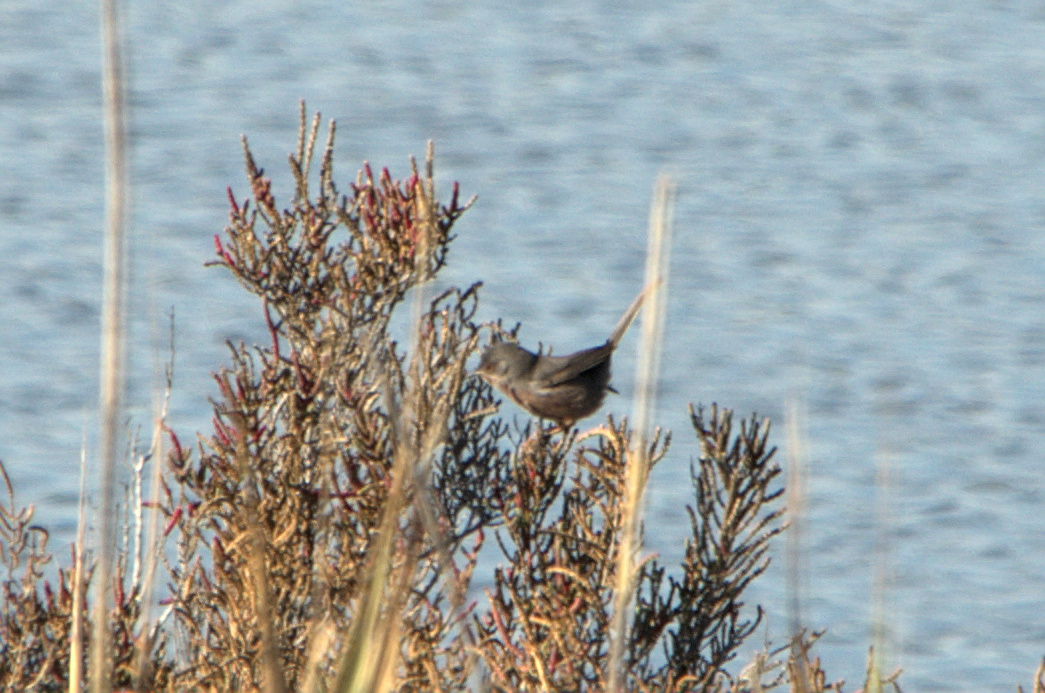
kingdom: Animalia
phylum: Chordata
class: Aves
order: Passeriformes
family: Sylviidae
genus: Sylvia
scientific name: Sylvia undata
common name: Dartford warbler
